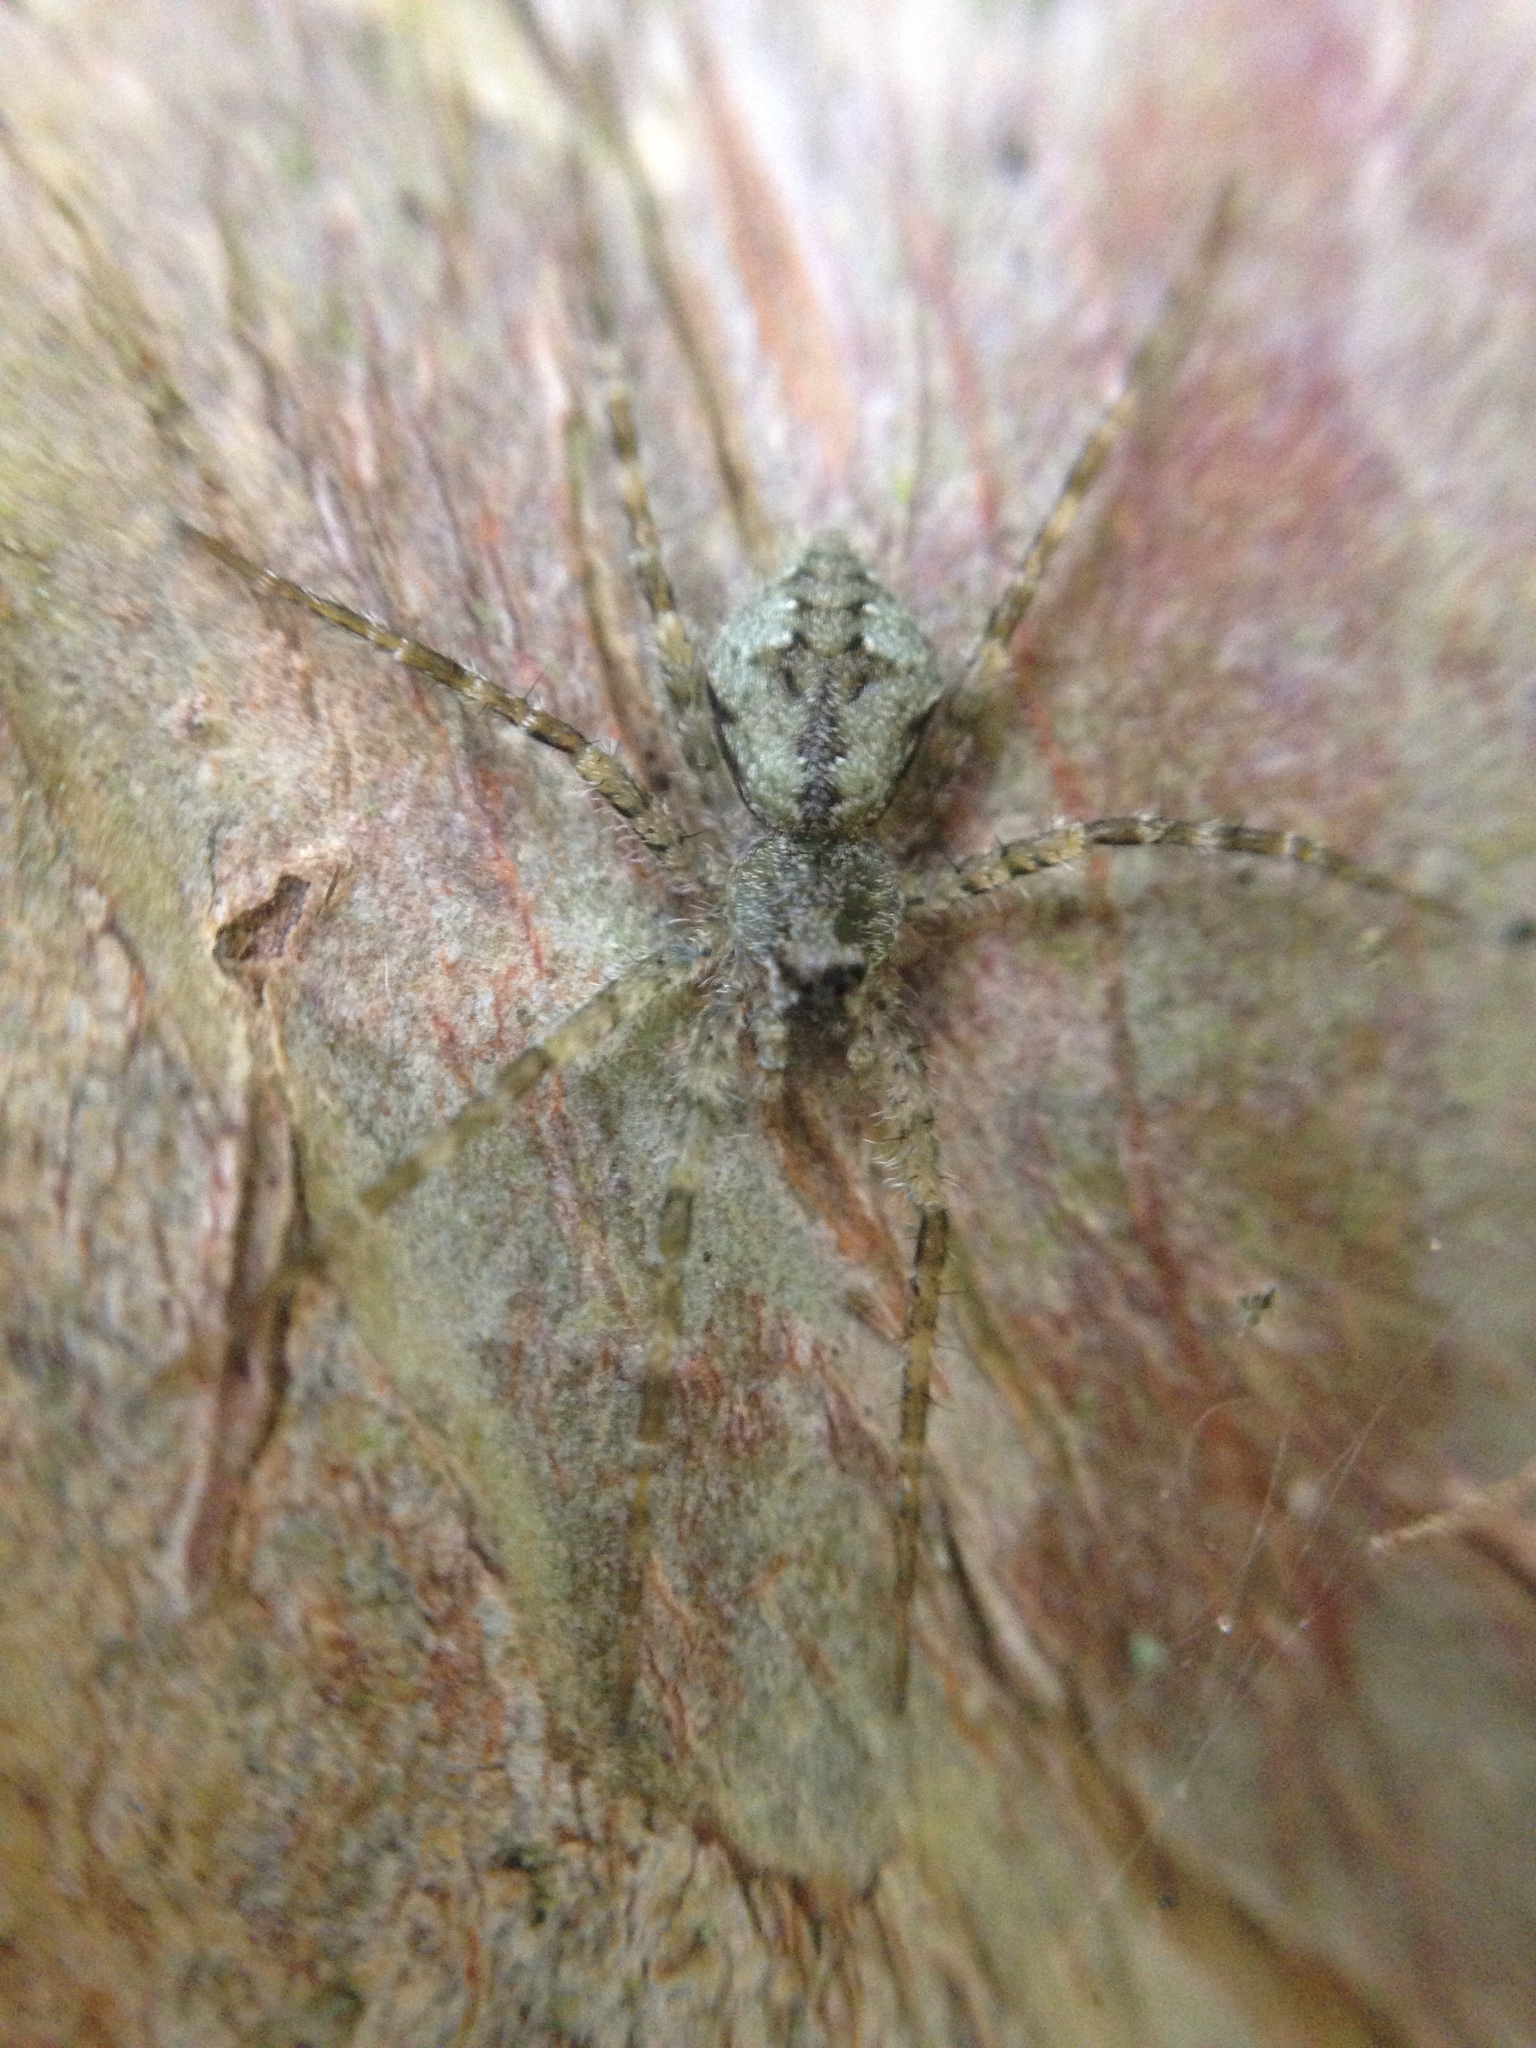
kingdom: Animalia
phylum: Arthropoda
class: Arachnida
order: Araneae
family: Pisauridae
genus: Dolomedes
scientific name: Dolomedes albineus
